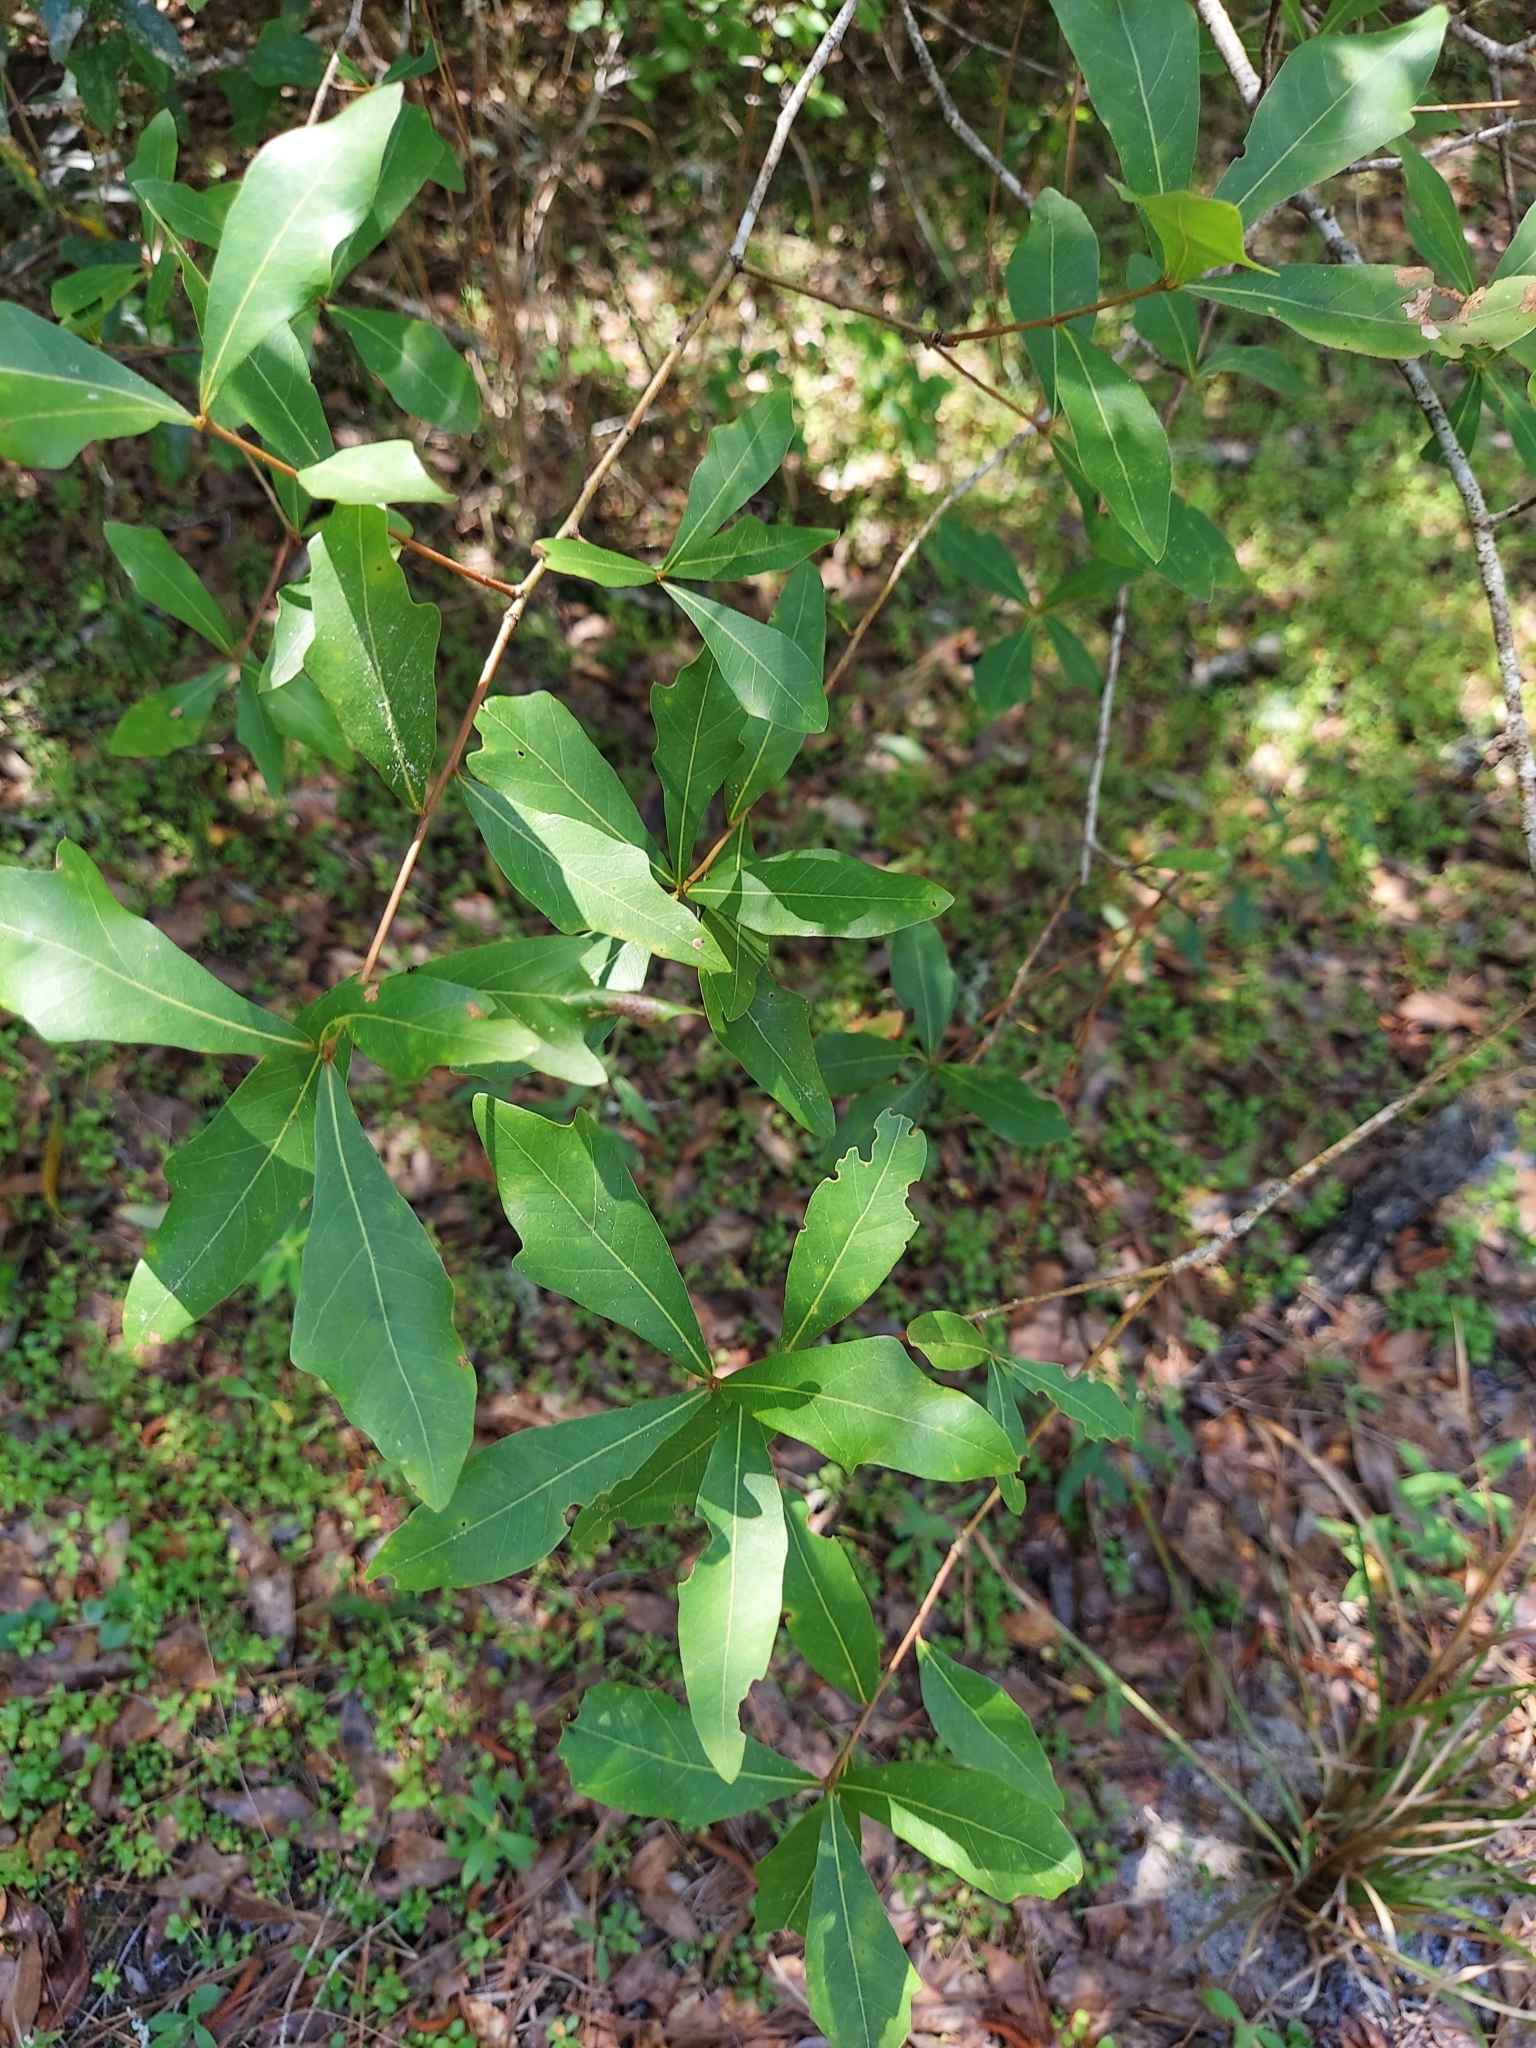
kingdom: Plantae
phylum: Tracheophyta
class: Magnoliopsida
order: Fagales
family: Fagaceae
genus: Quercus
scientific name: Quercus laurifolia
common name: Swamp laurel oak
